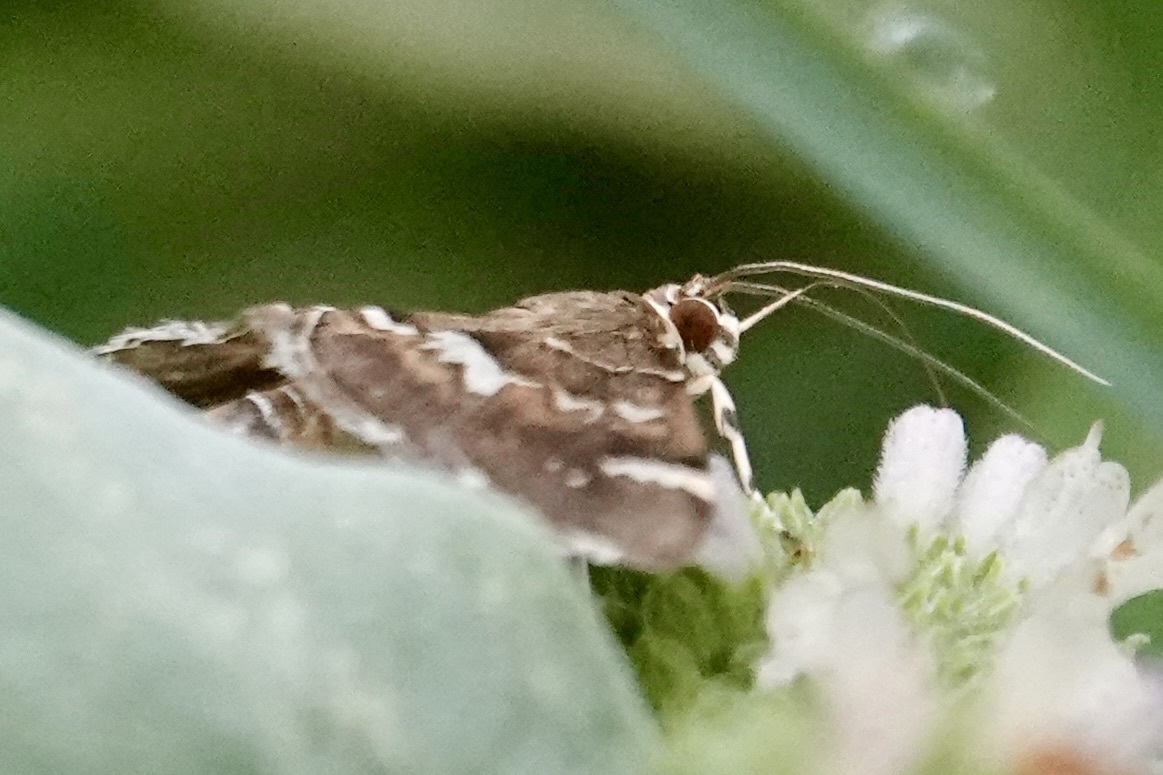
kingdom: Animalia
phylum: Arthropoda
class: Insecta
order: Lepidoptera
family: Crambidae
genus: Hymenia
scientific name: Hymenia perspectalis
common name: Spotted beet webworm
